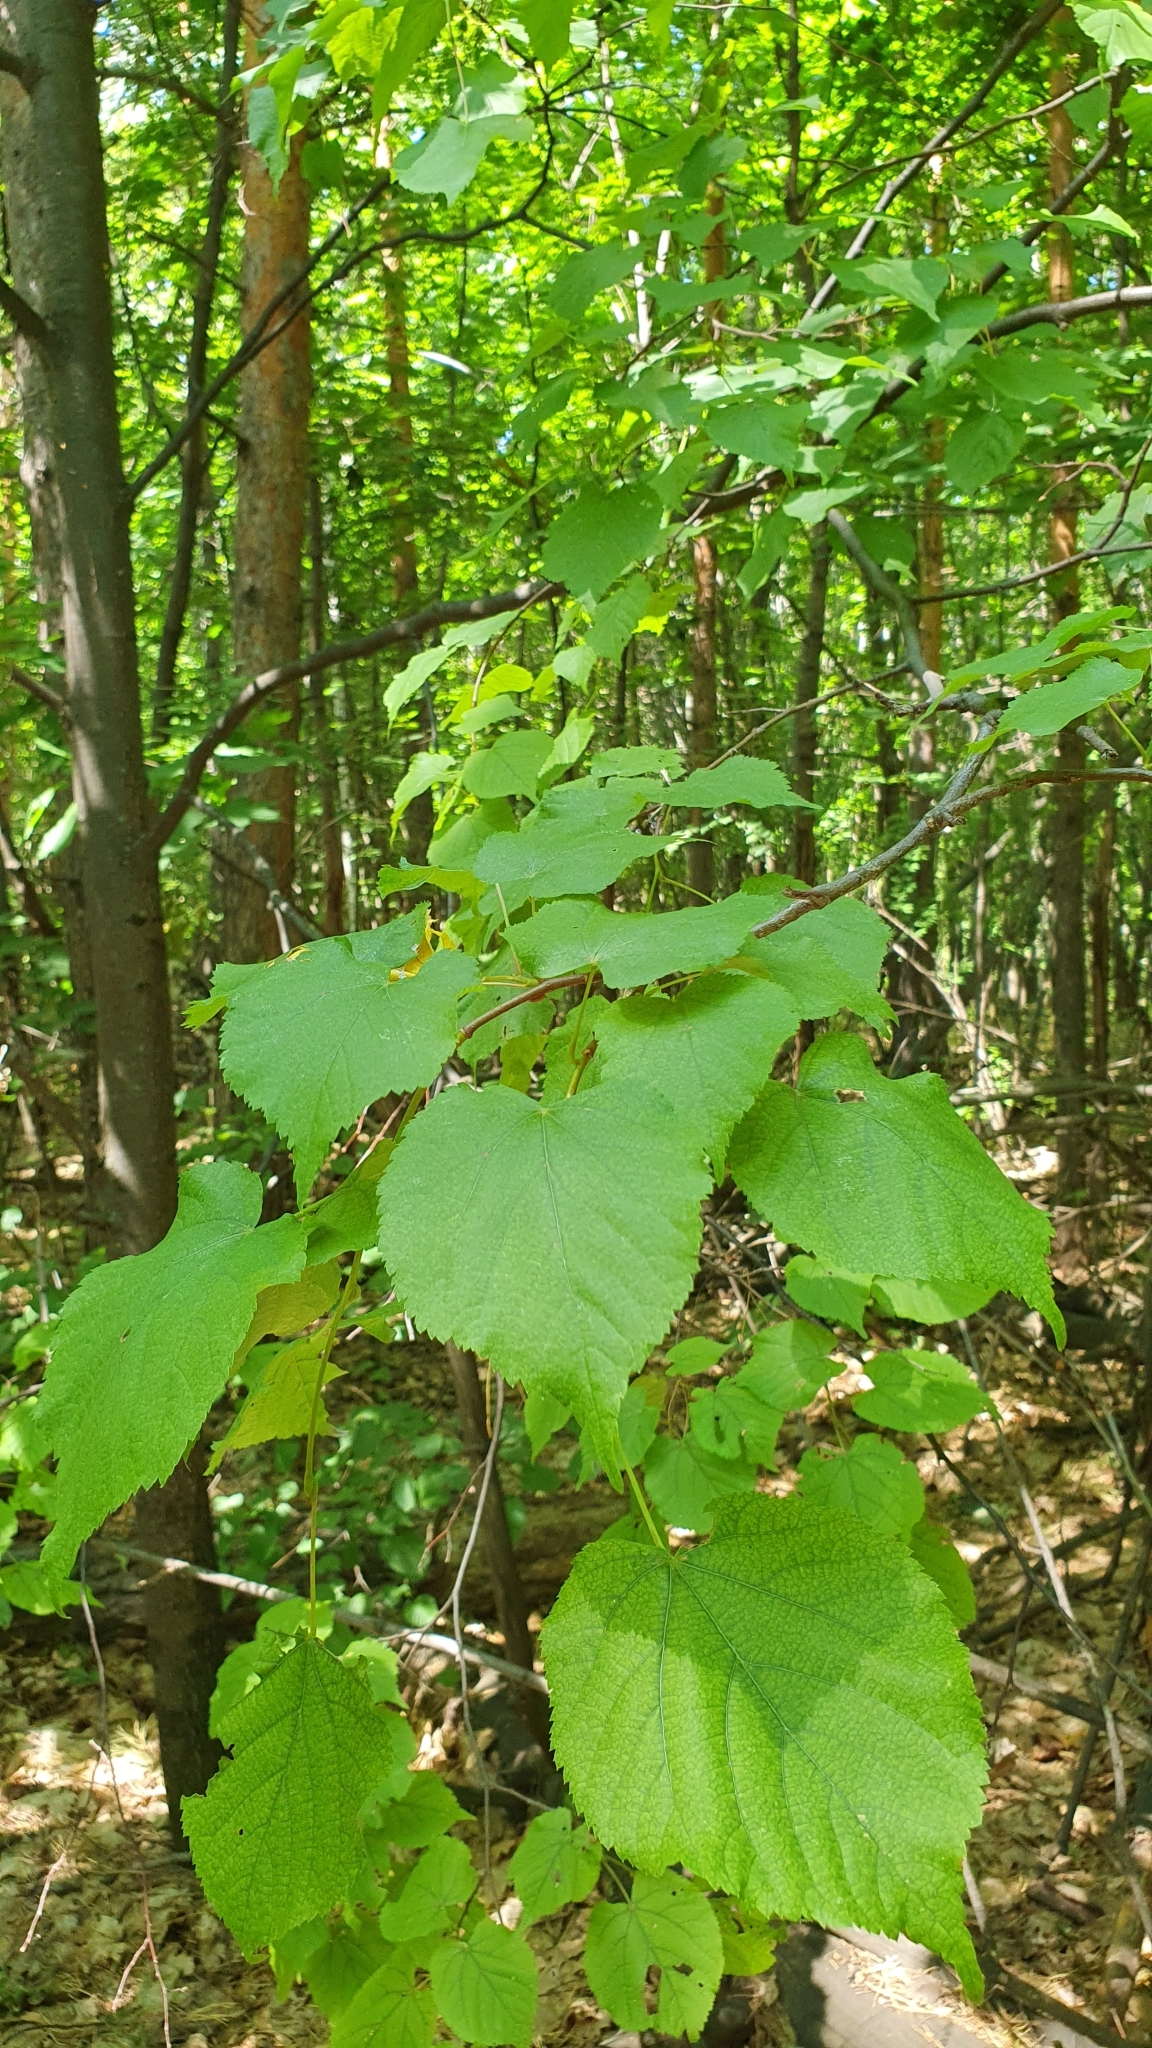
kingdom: Plantae
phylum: Tracheophyta
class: Magnoliopsida
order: Malvales
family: Malvaceae
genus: Tilia
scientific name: Tilia cordata
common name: Small-leaved lime
